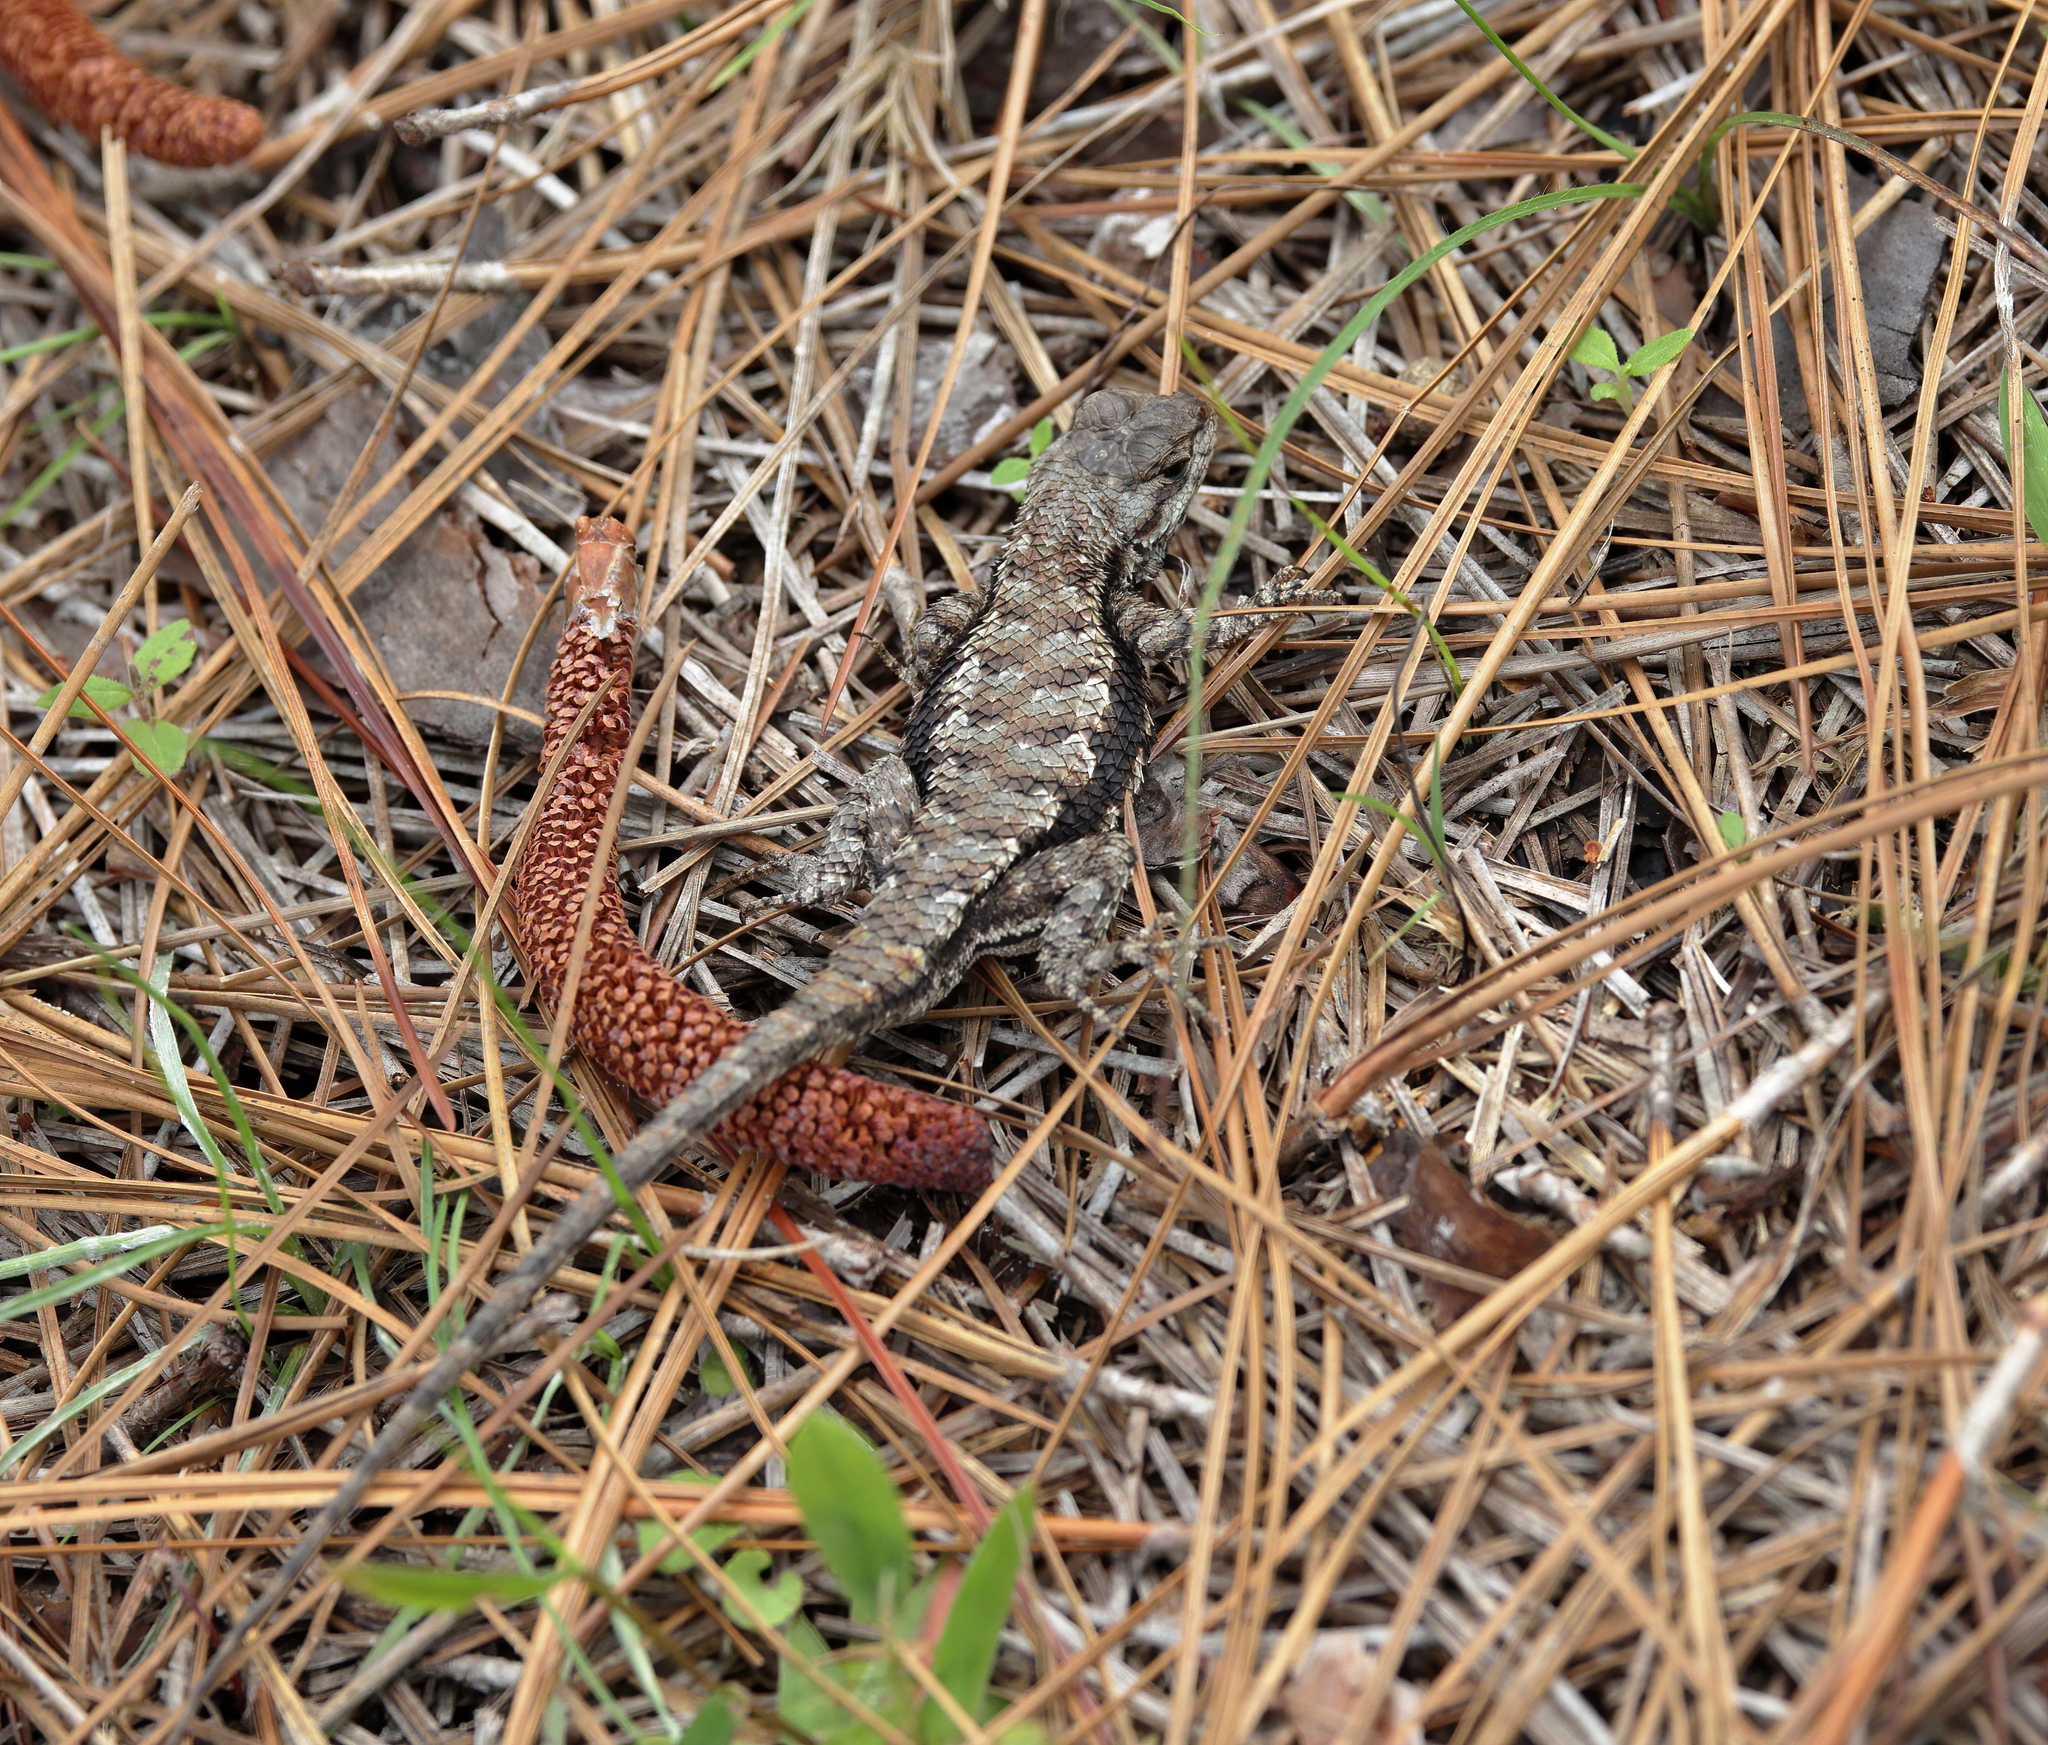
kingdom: Animalia
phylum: Chordata
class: Squamata
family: Phrynosomatidae
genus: Sceloporus
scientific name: Sceloporus undulatus
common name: Eastern fence lizard
